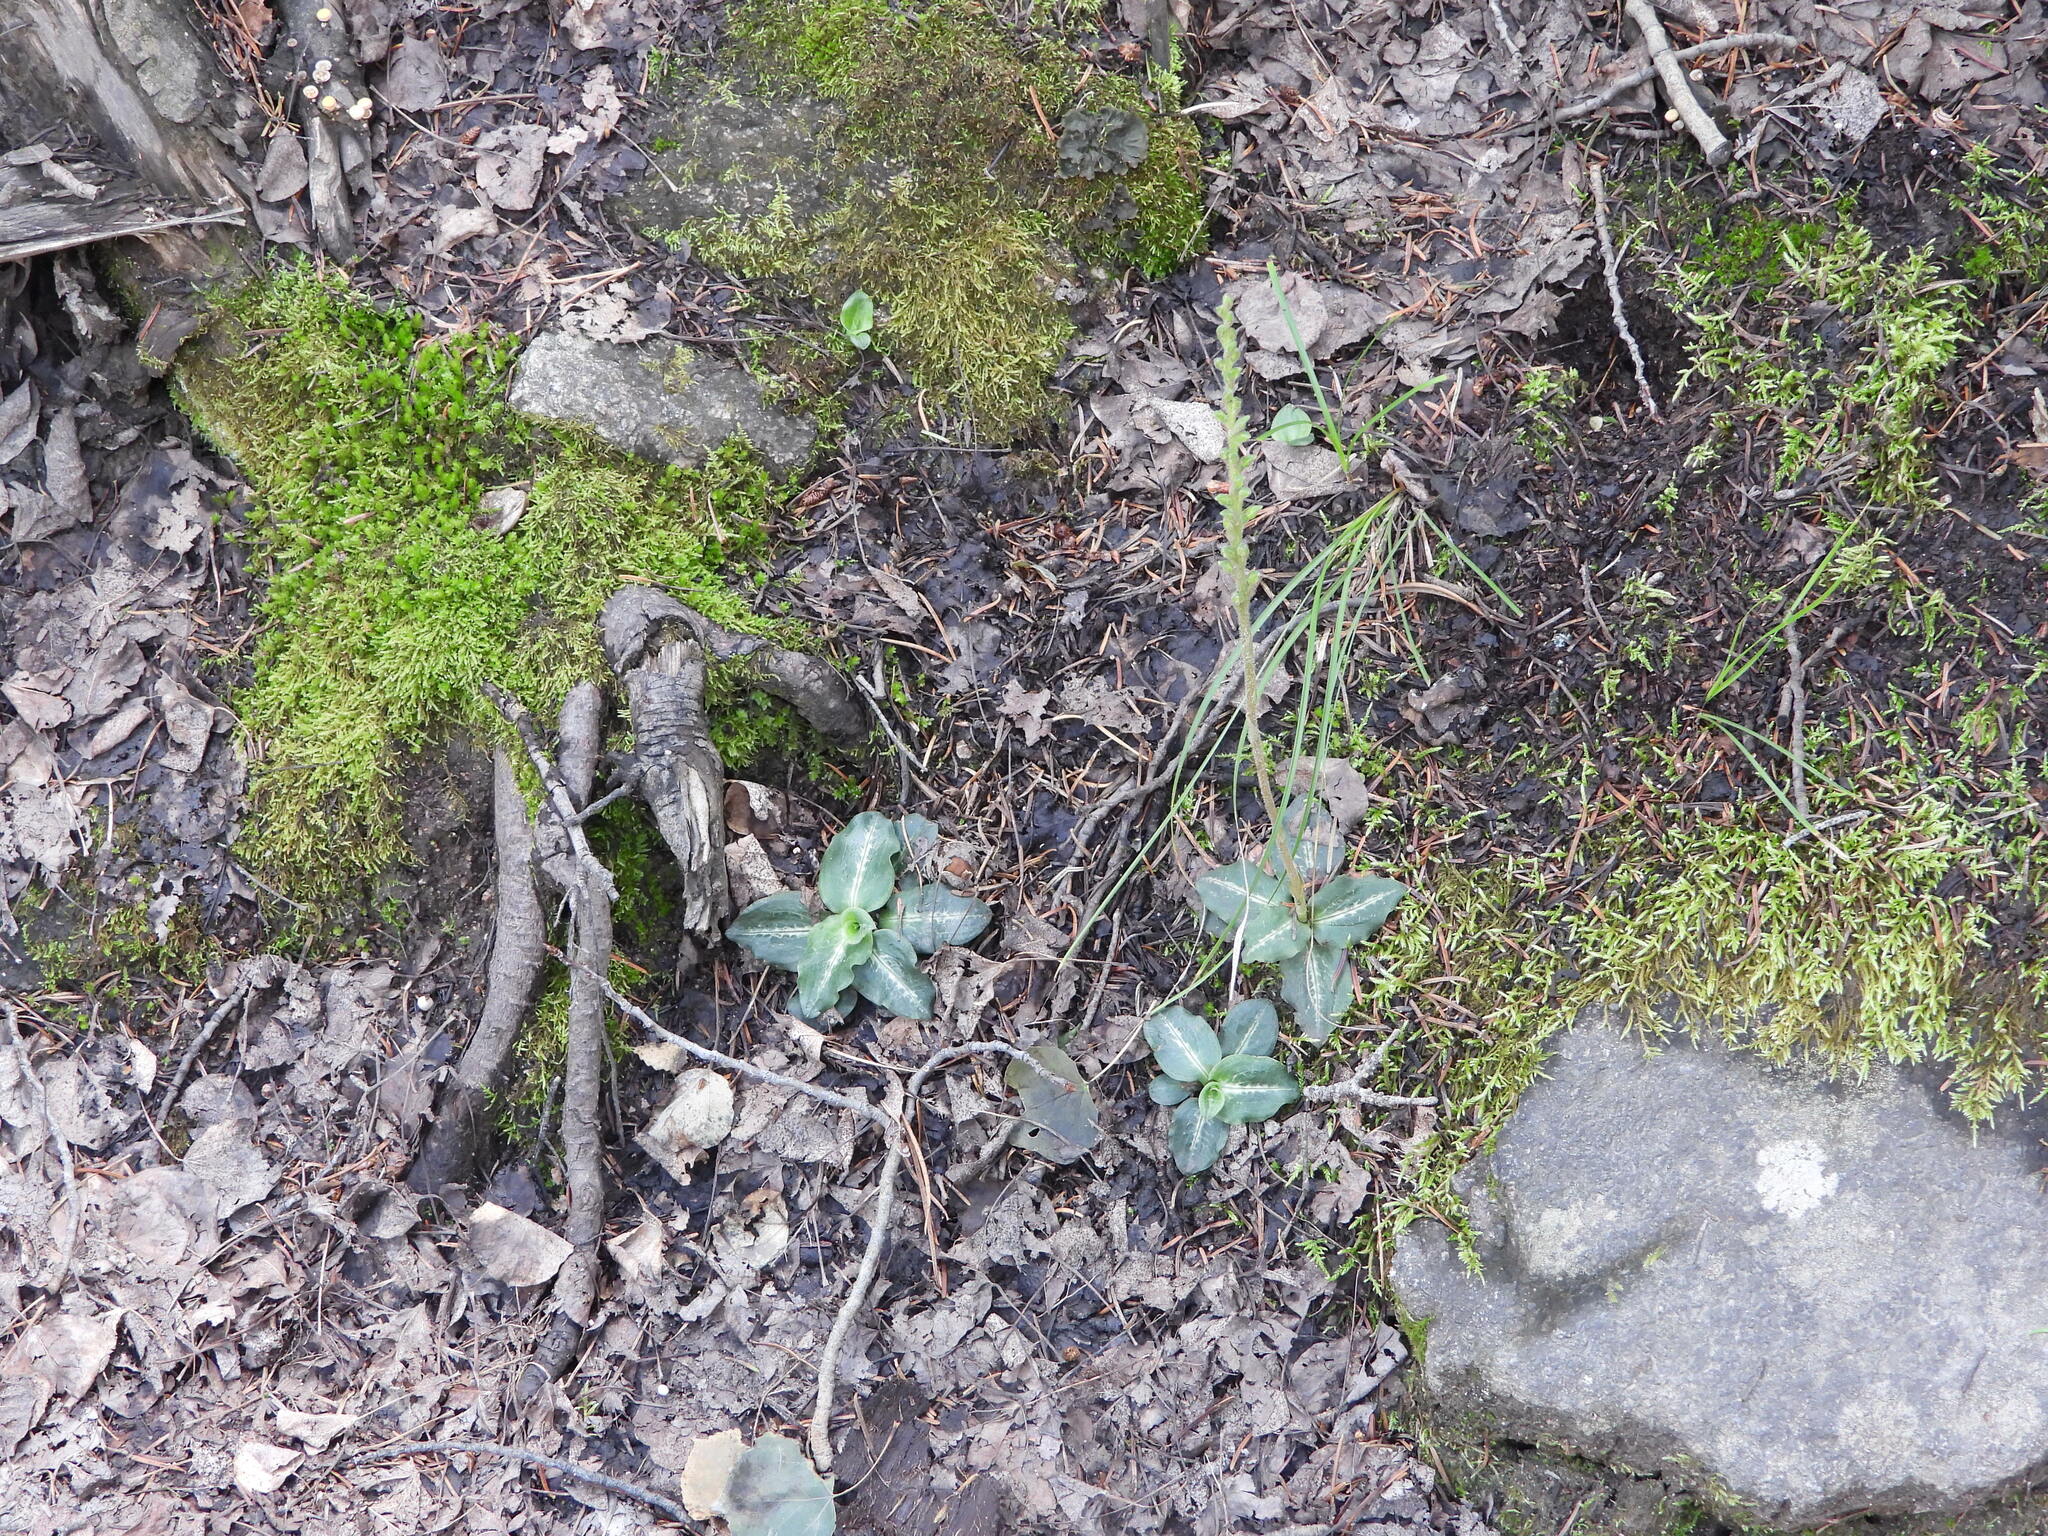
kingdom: Plantae
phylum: Tracheophyta
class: Liliopsida
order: Asparagales
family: Orchidaceae
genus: Goodyera
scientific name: Goodyera oblongifolia
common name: Giant rattlesnake-plantain
